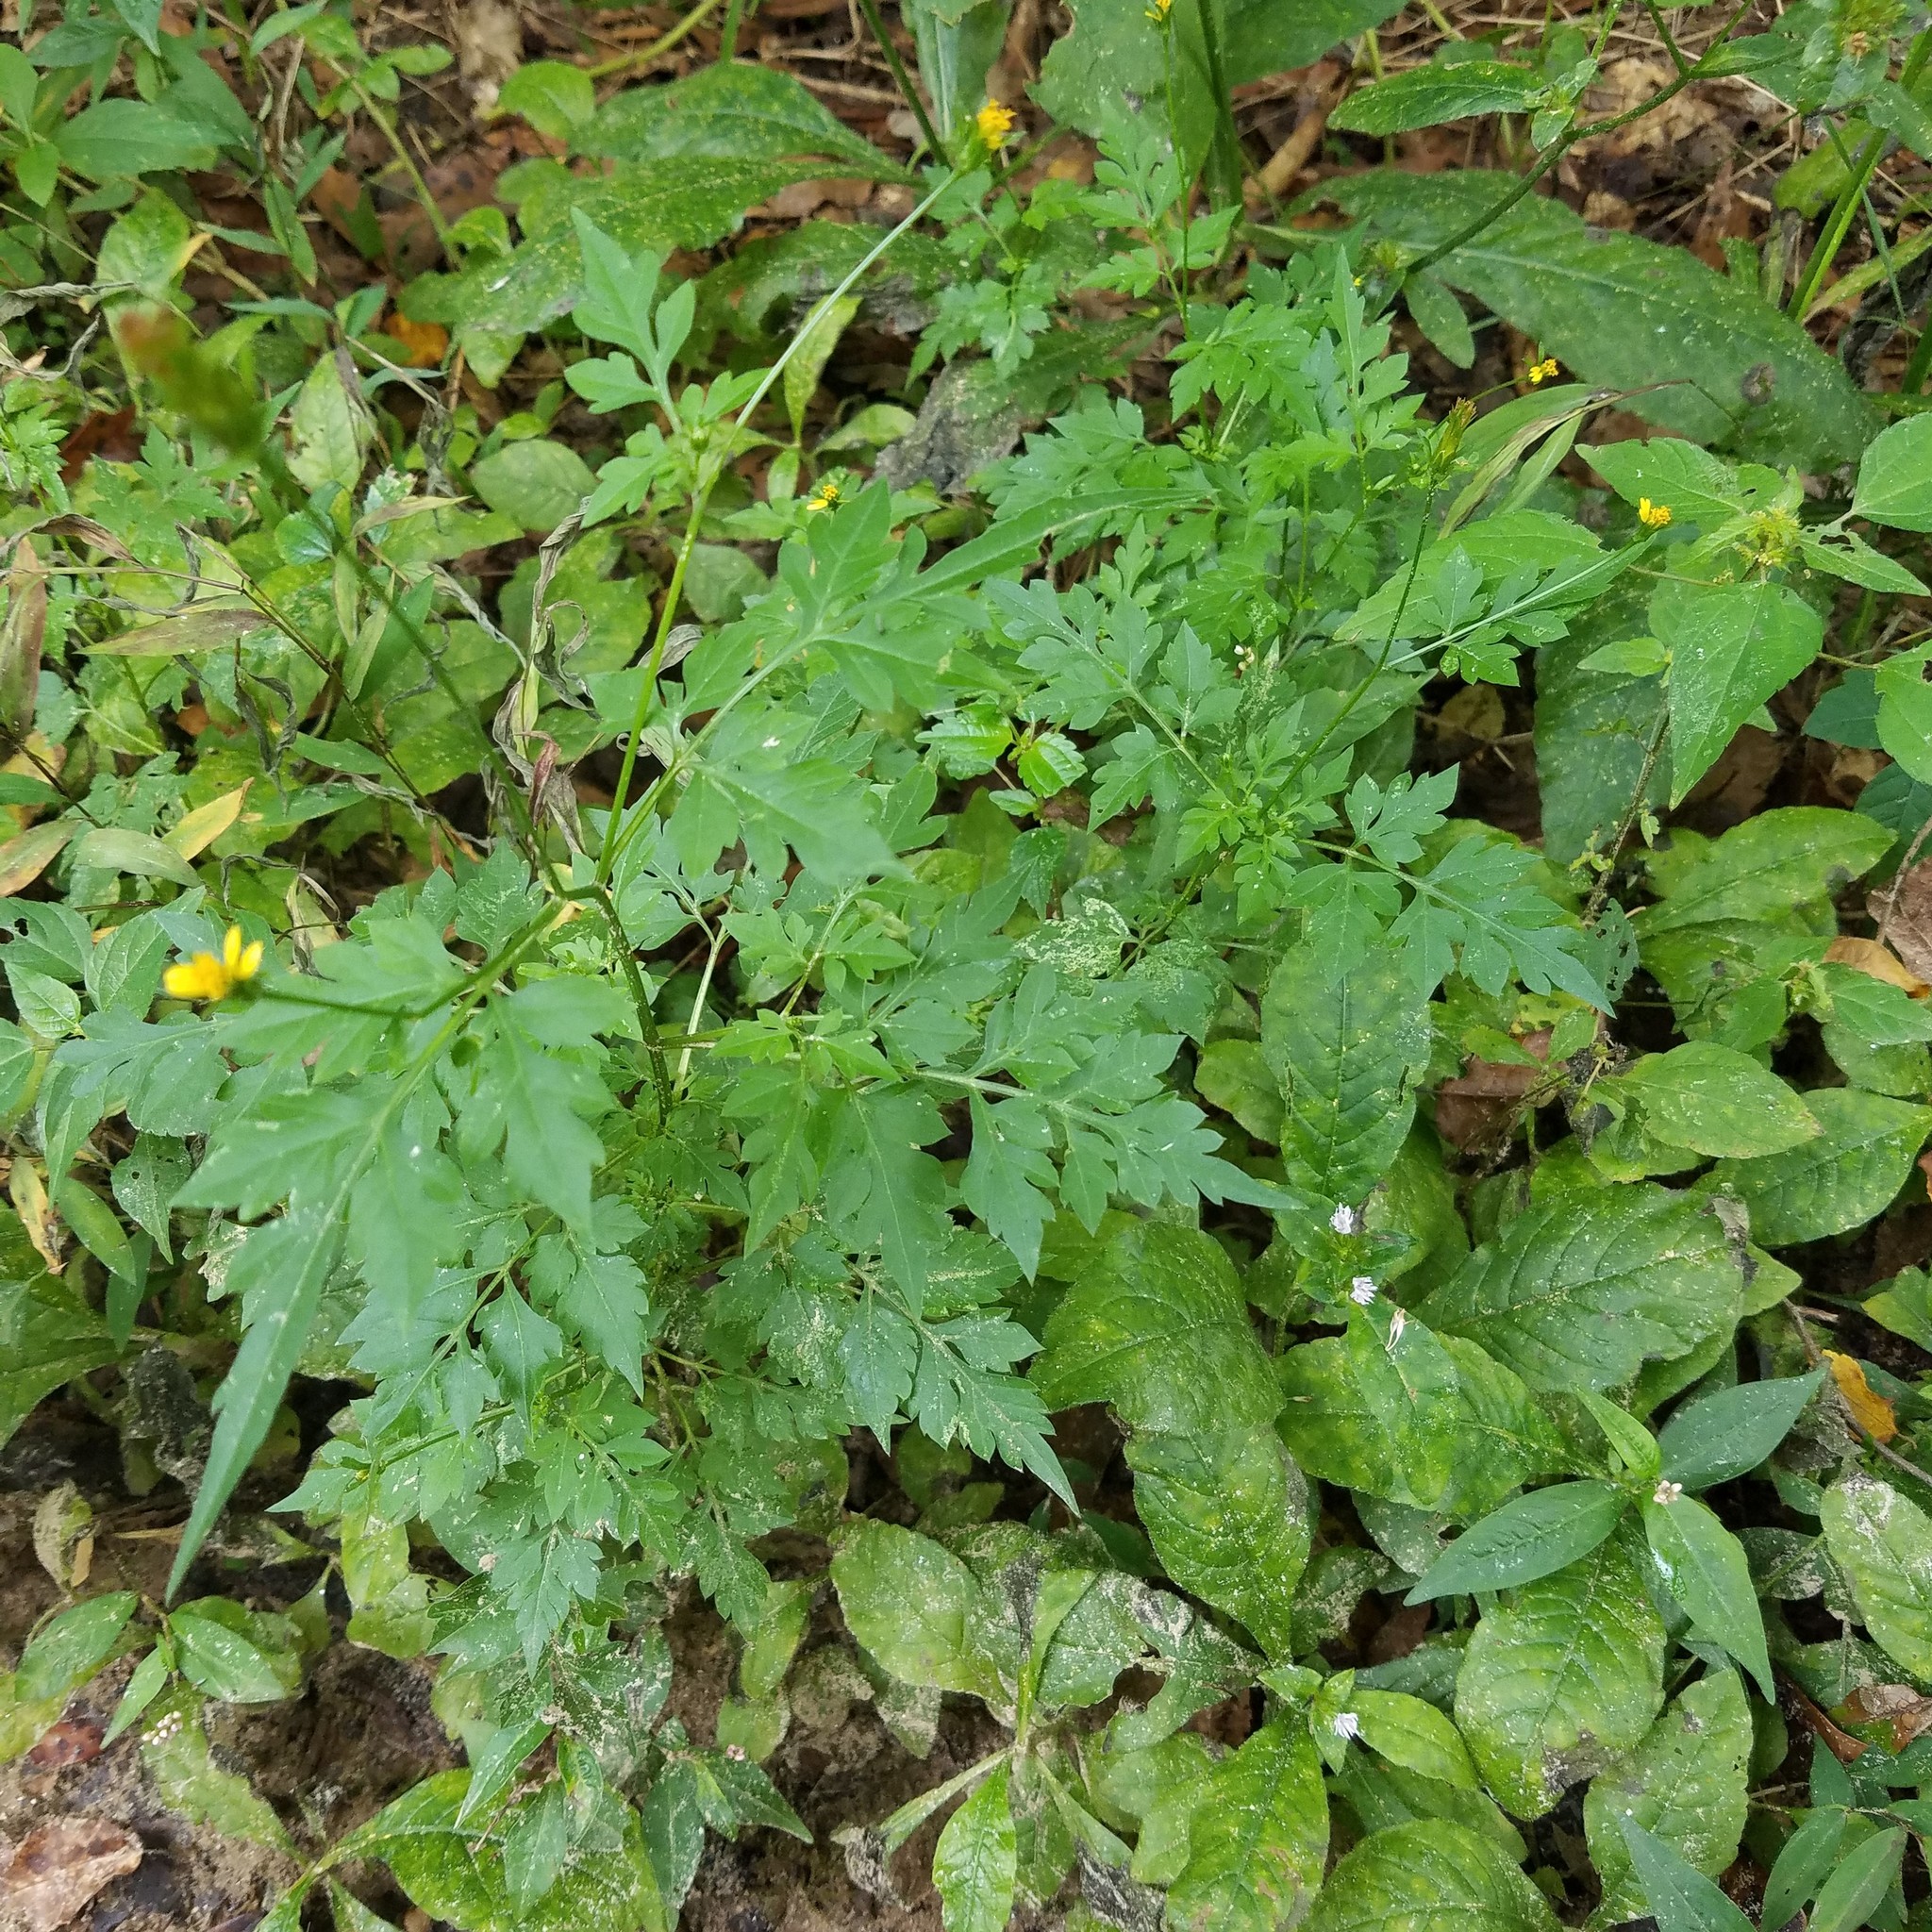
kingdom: Plantae
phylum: Tracheophyta
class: Magnoliopsida
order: Asterales
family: Asteraceae
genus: Bidens
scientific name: Bidens bipinnata
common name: Spanish-needles
